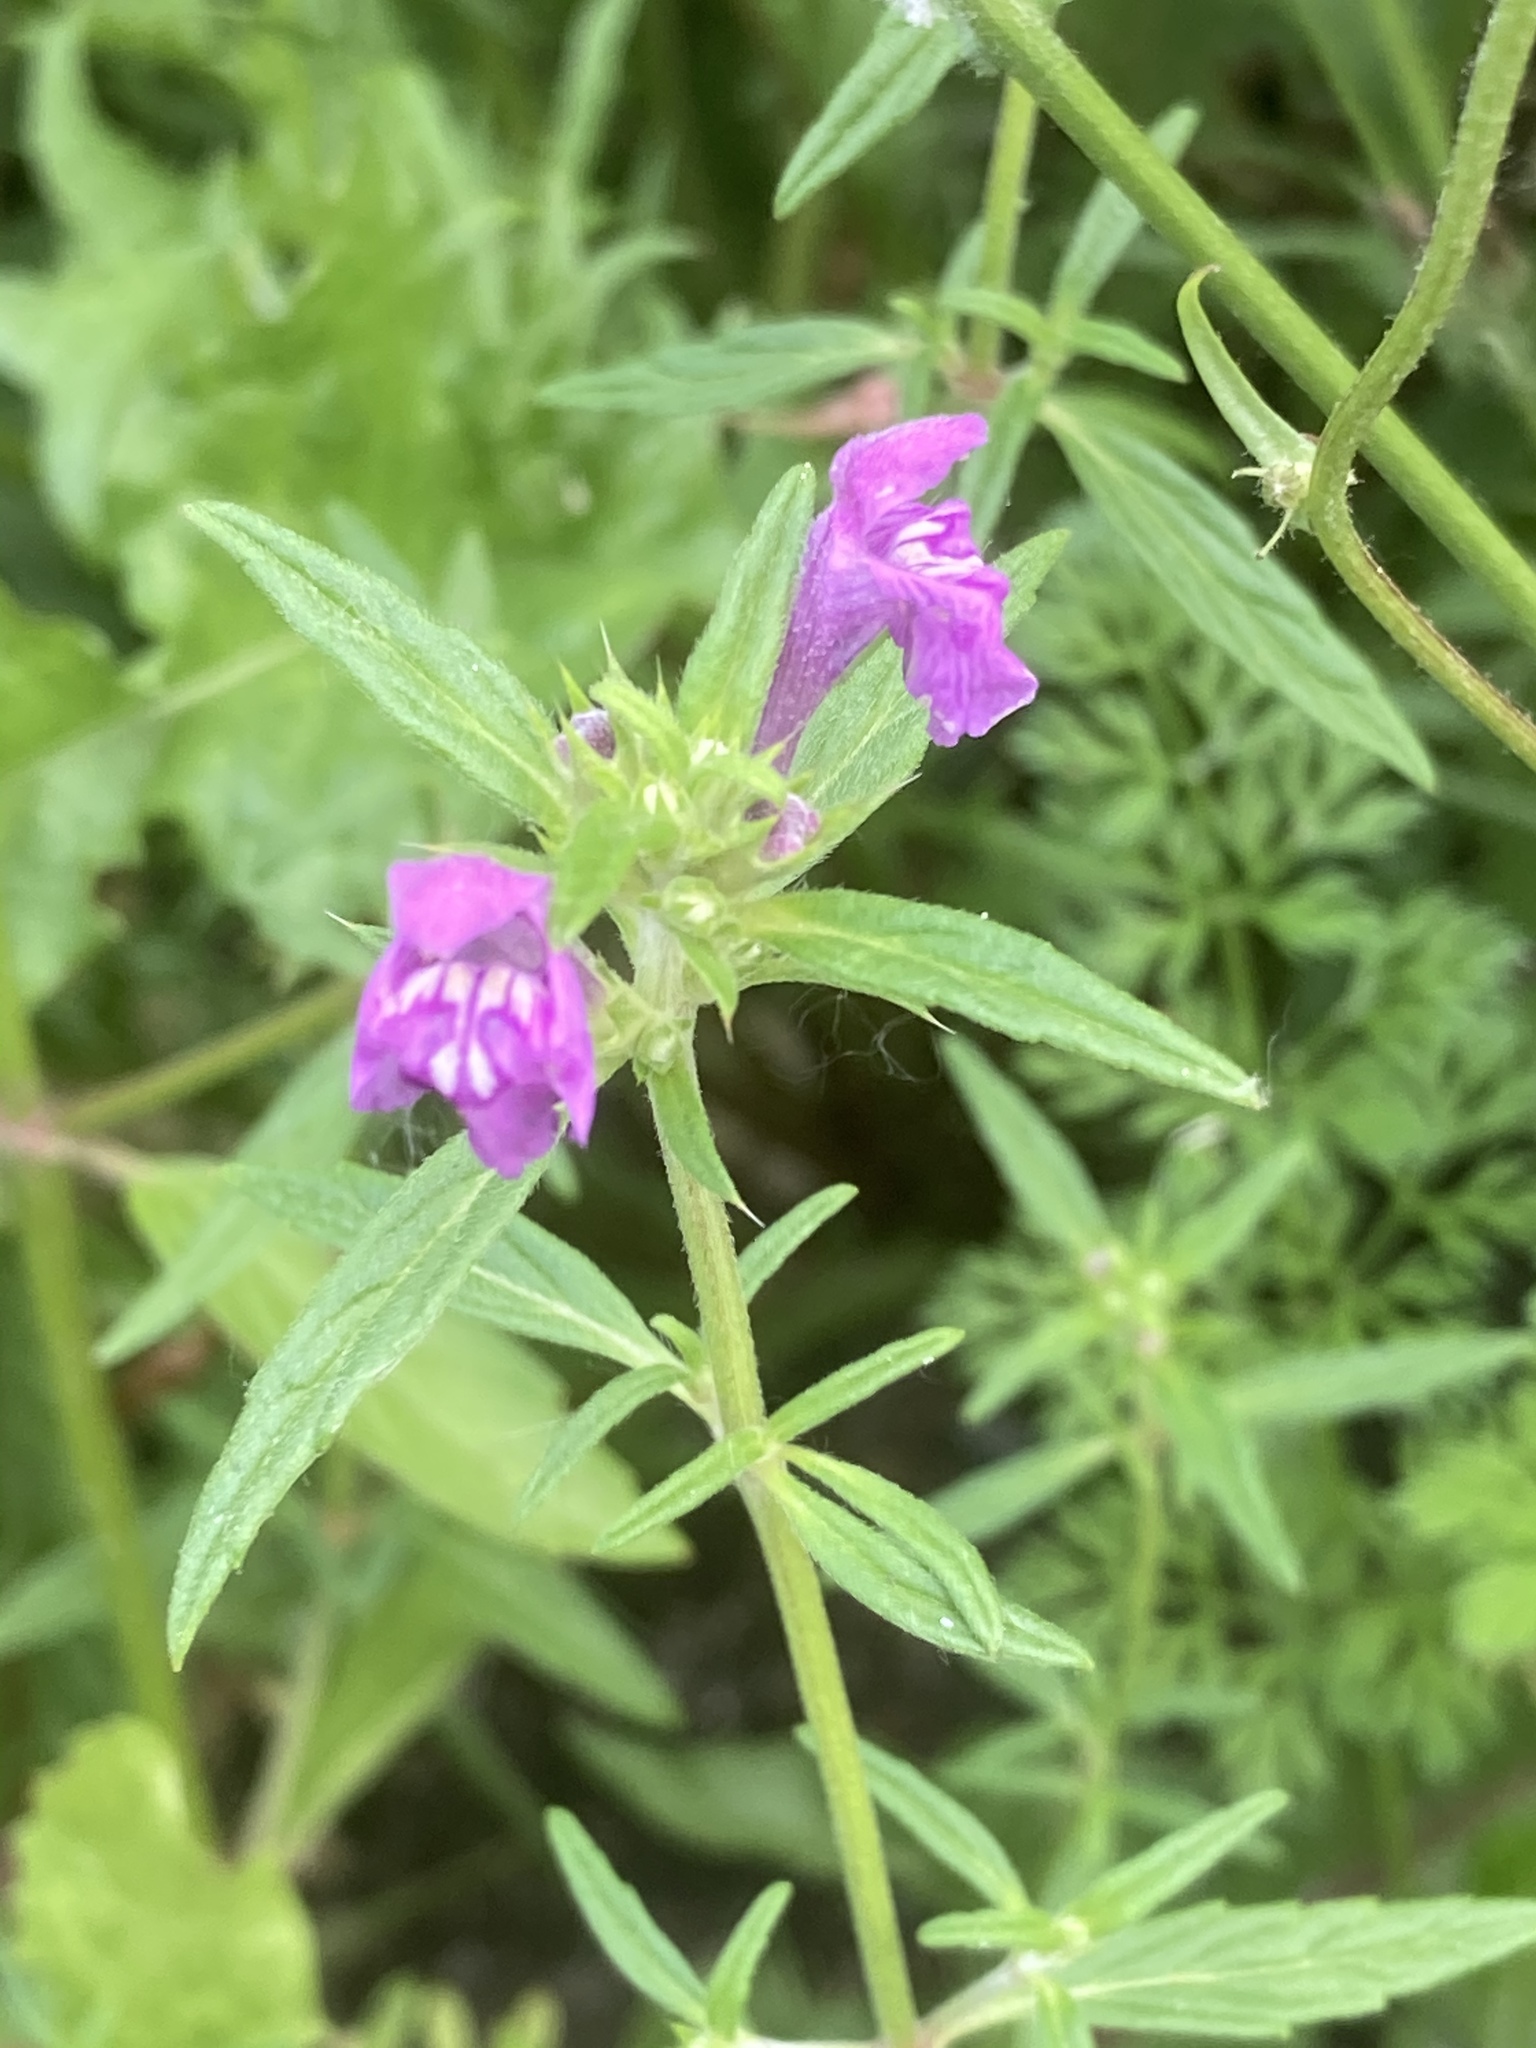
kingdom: Plantae
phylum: Tracheophyta
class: Magnoliopsida
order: Lamiales
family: Lamiaceae
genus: Galeopsis
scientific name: Galeopsis angustifolia
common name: Red hemp-nettle
